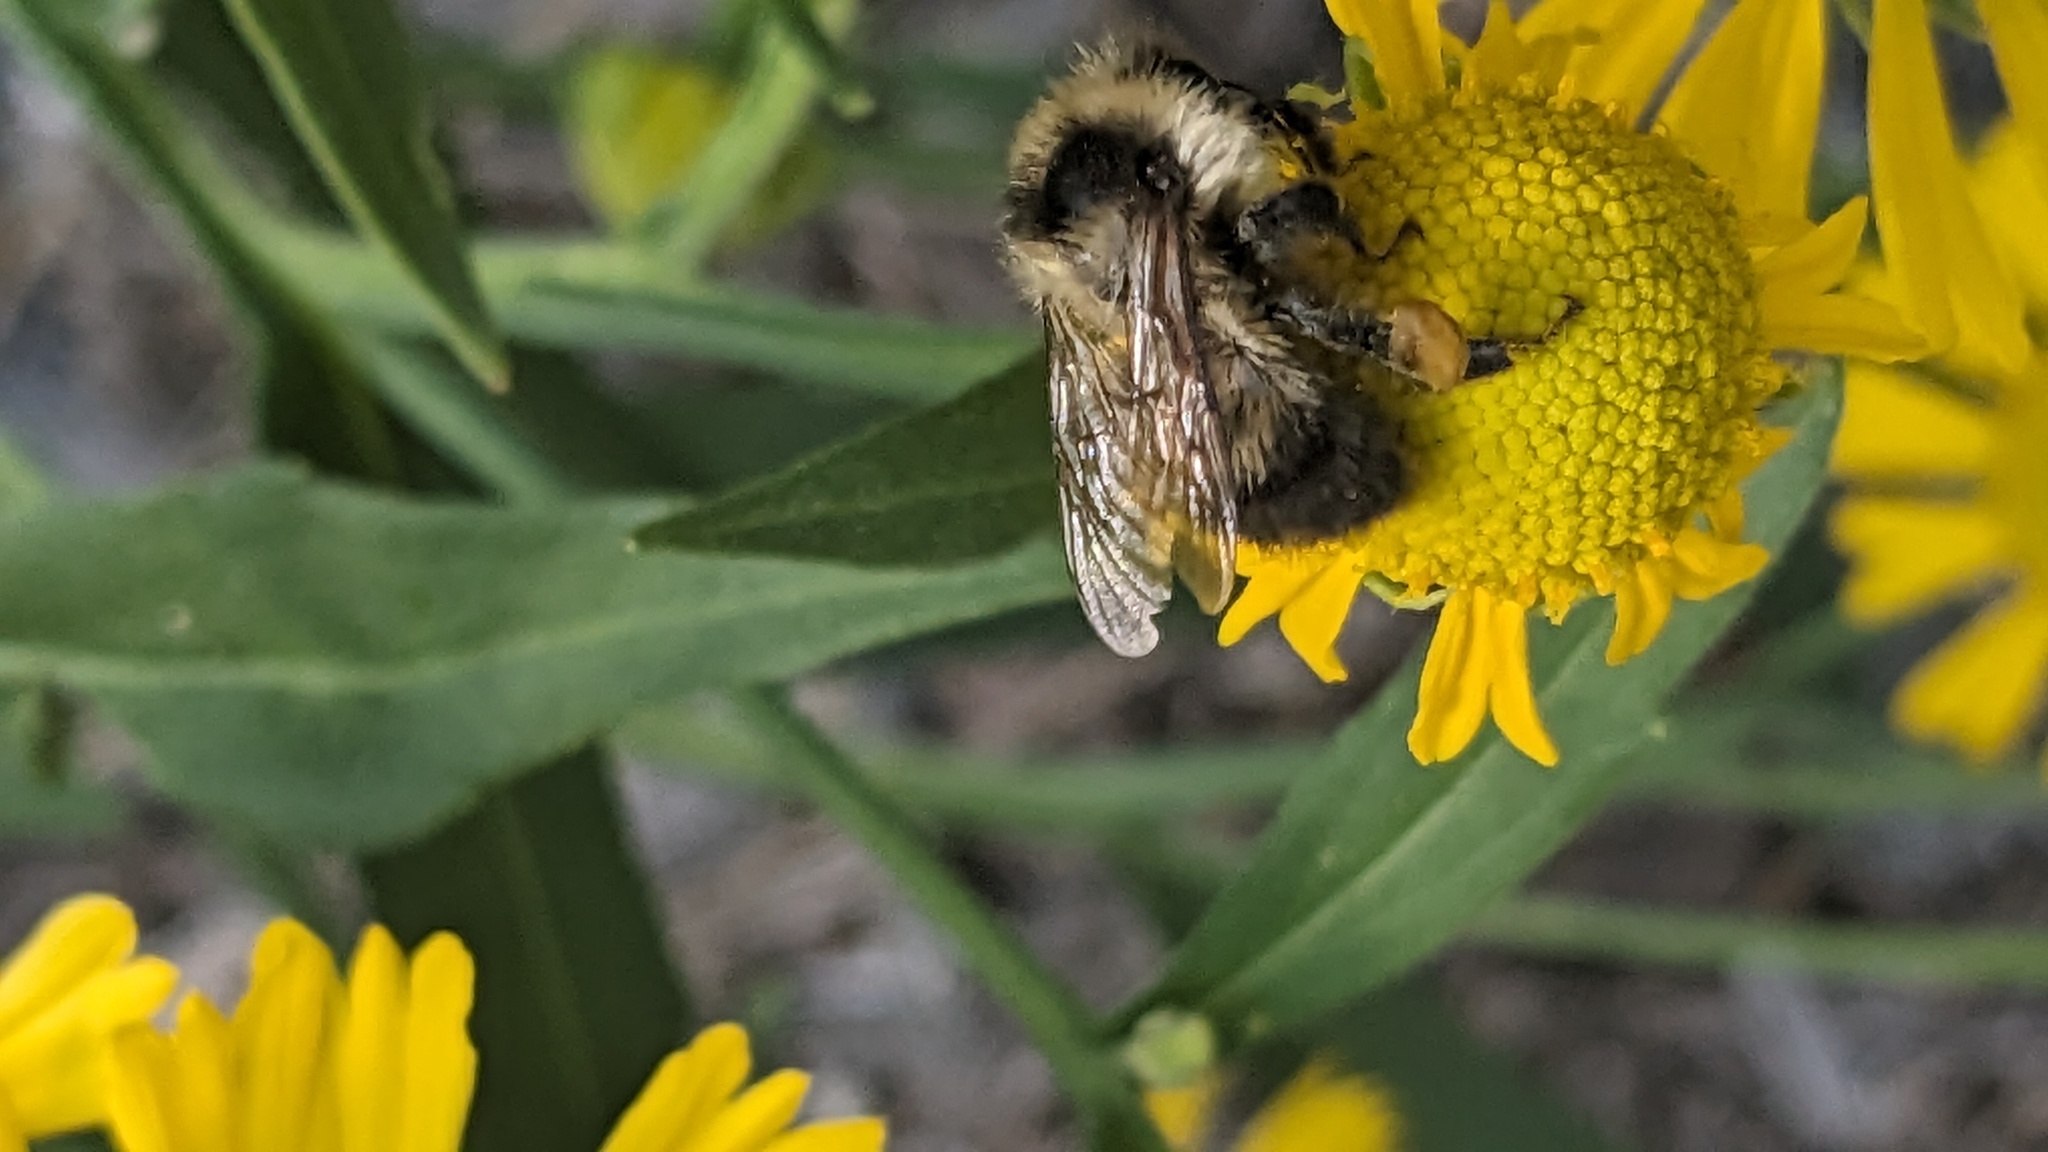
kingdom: Animalia
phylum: Arthropoda
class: Insecta
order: Hymenoptera
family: Apidae
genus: Bombus
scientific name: Bombus rufocinctus
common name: Red-belted bumble bee
